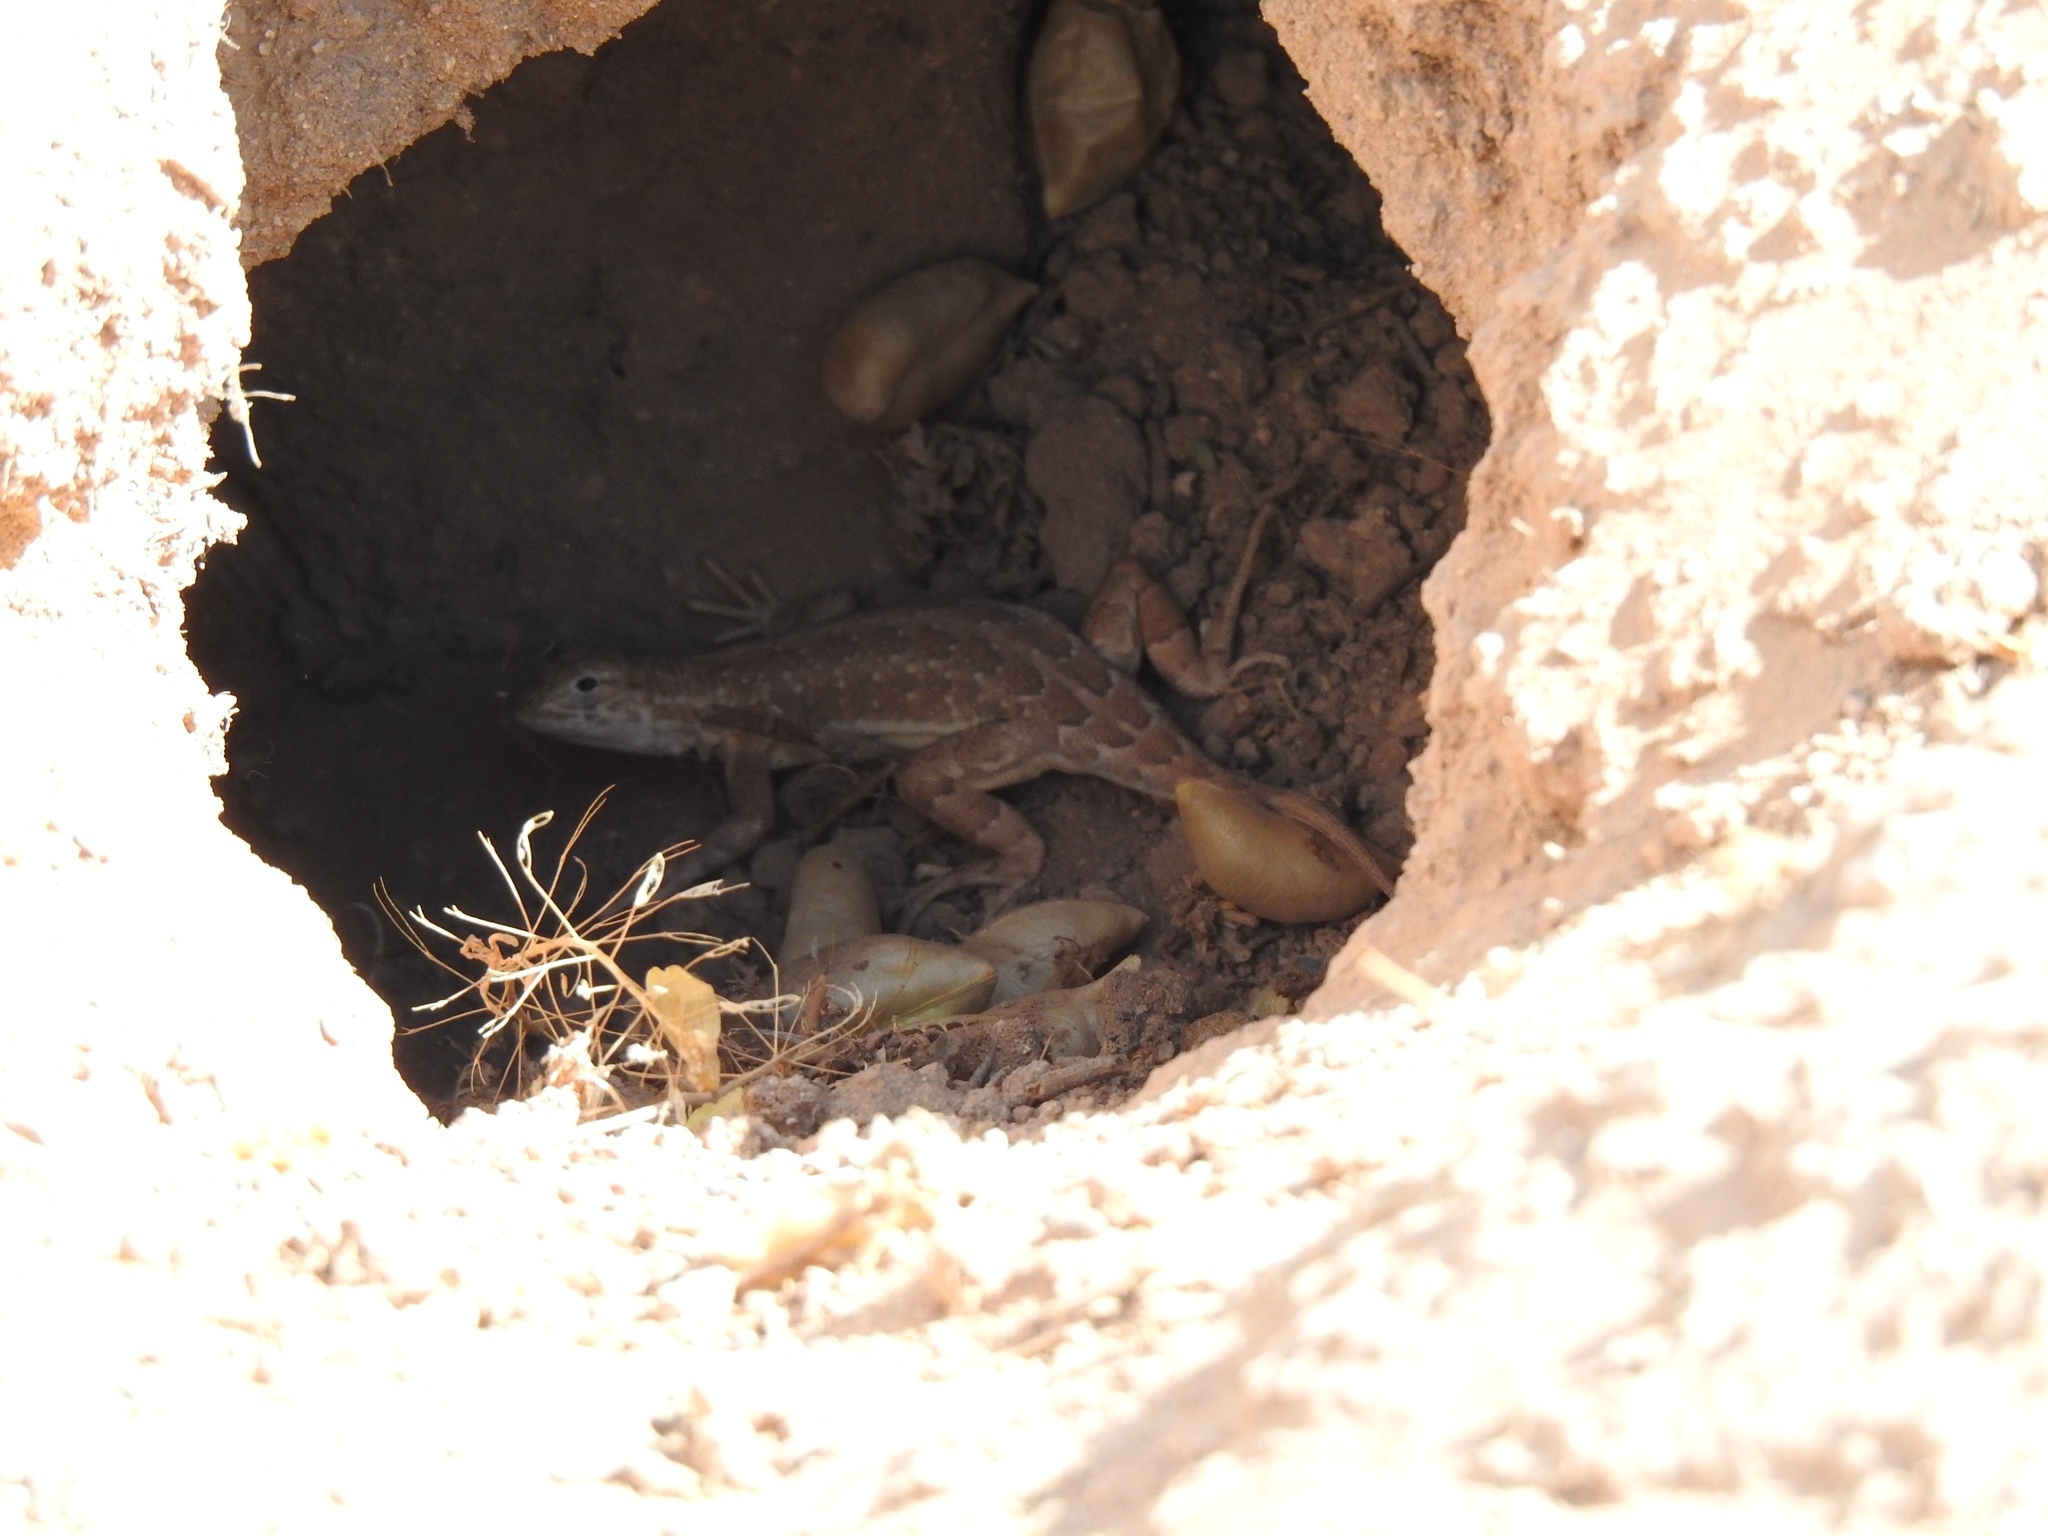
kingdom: Animalia
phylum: Chordata
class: Squamata
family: Phrynosomatidae
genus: Holbrookia
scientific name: Holbrookia maculata
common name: Lesser earless lizard
